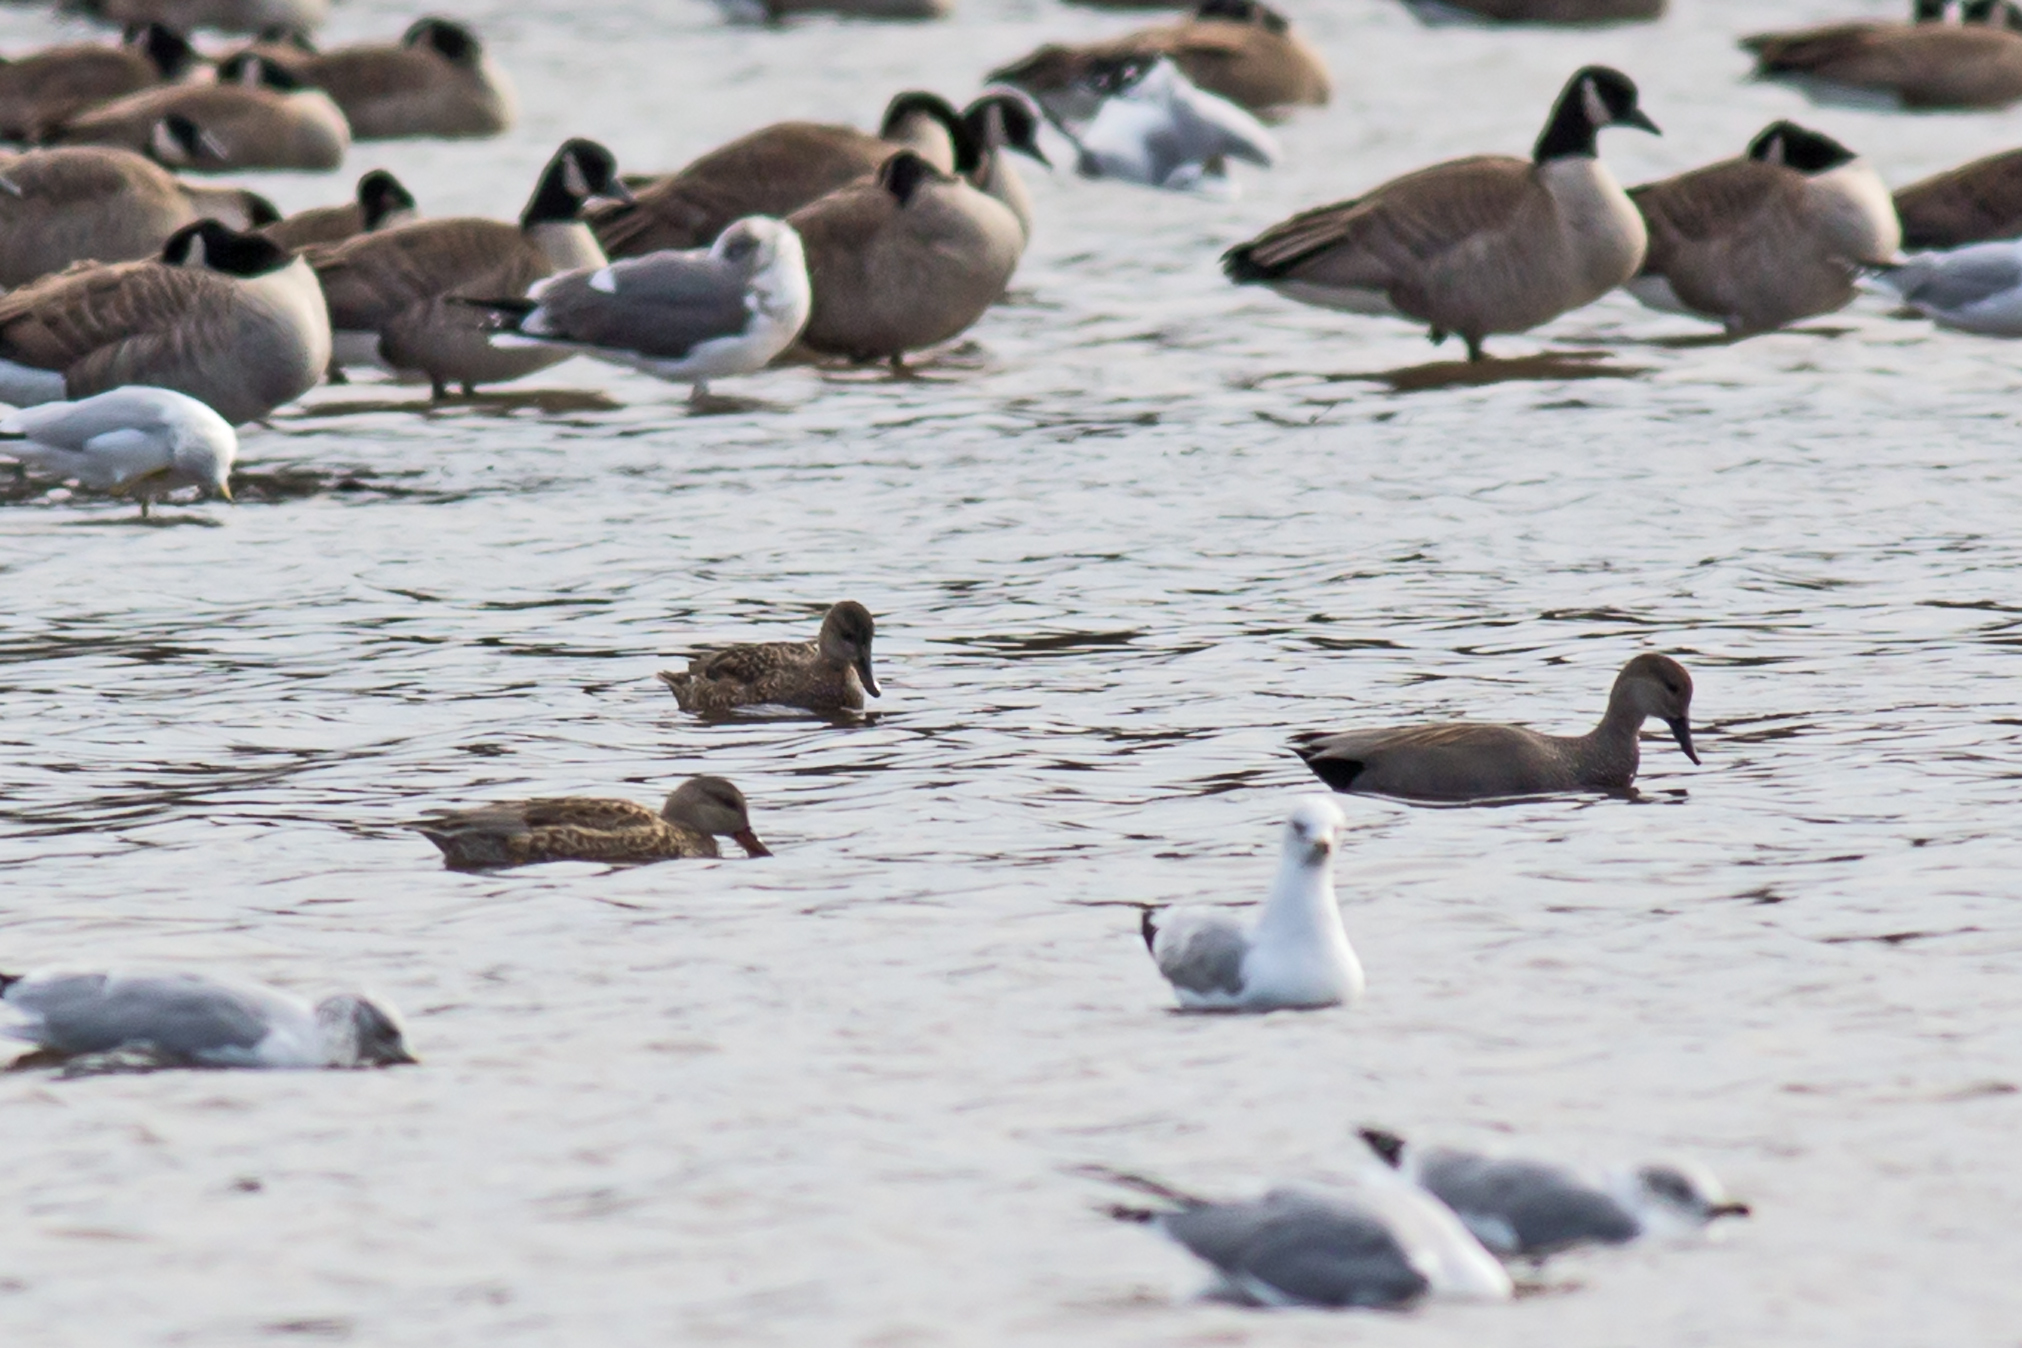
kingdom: Animalia
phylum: Chordata
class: Aves
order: Anseriformes
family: Anatidae
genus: Mareca
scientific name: Mareca strepera
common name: Gadwall
